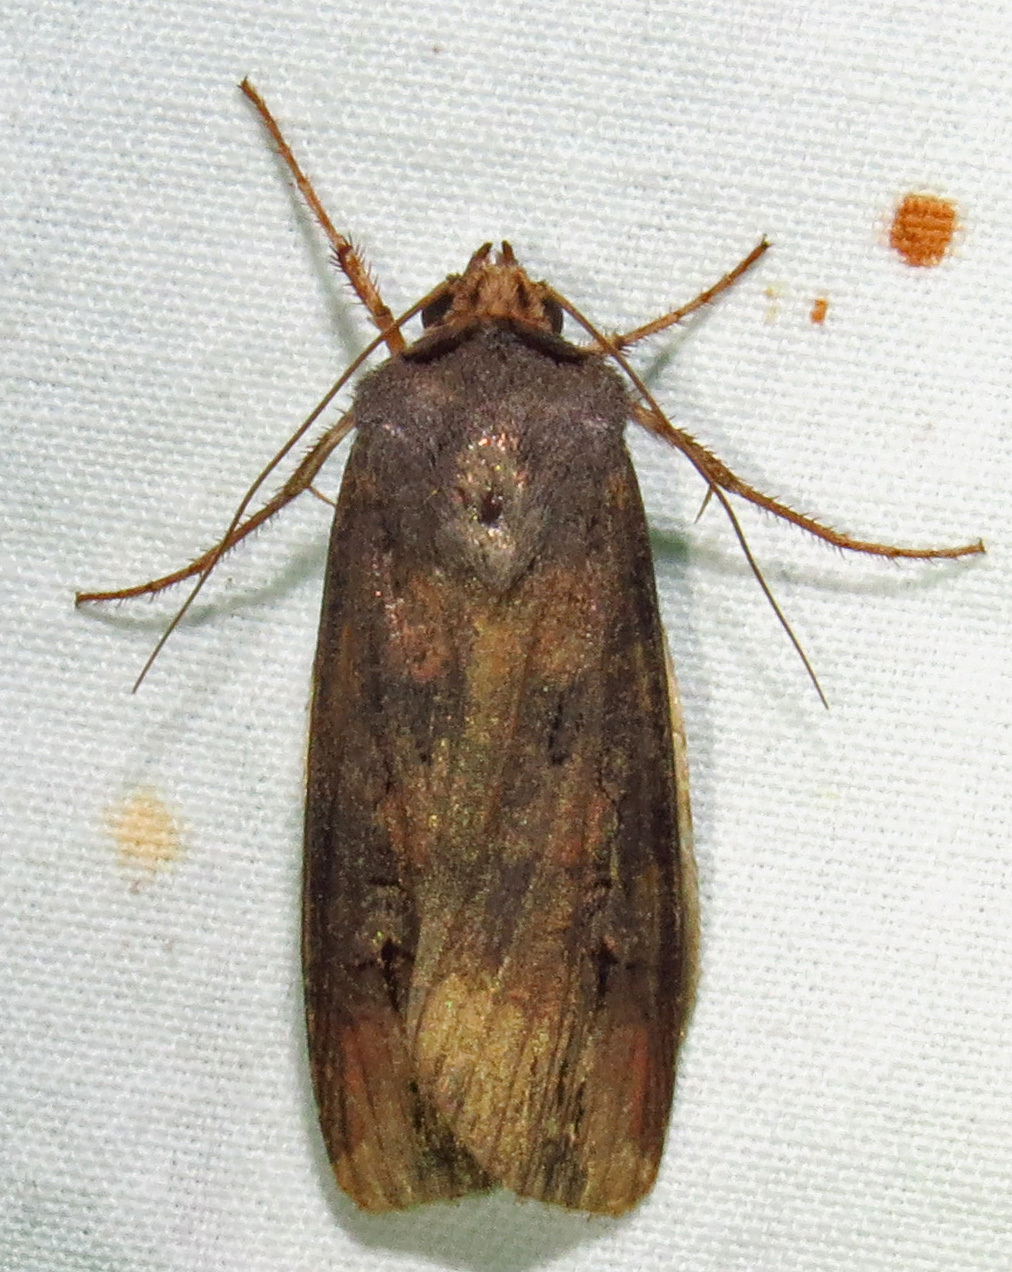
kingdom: Animalia
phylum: Arthropoda
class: Insecta
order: Lepidoptera
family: Noctuidae
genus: Agrotis
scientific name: Agrotis ipsilon
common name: Dark sword-grass
